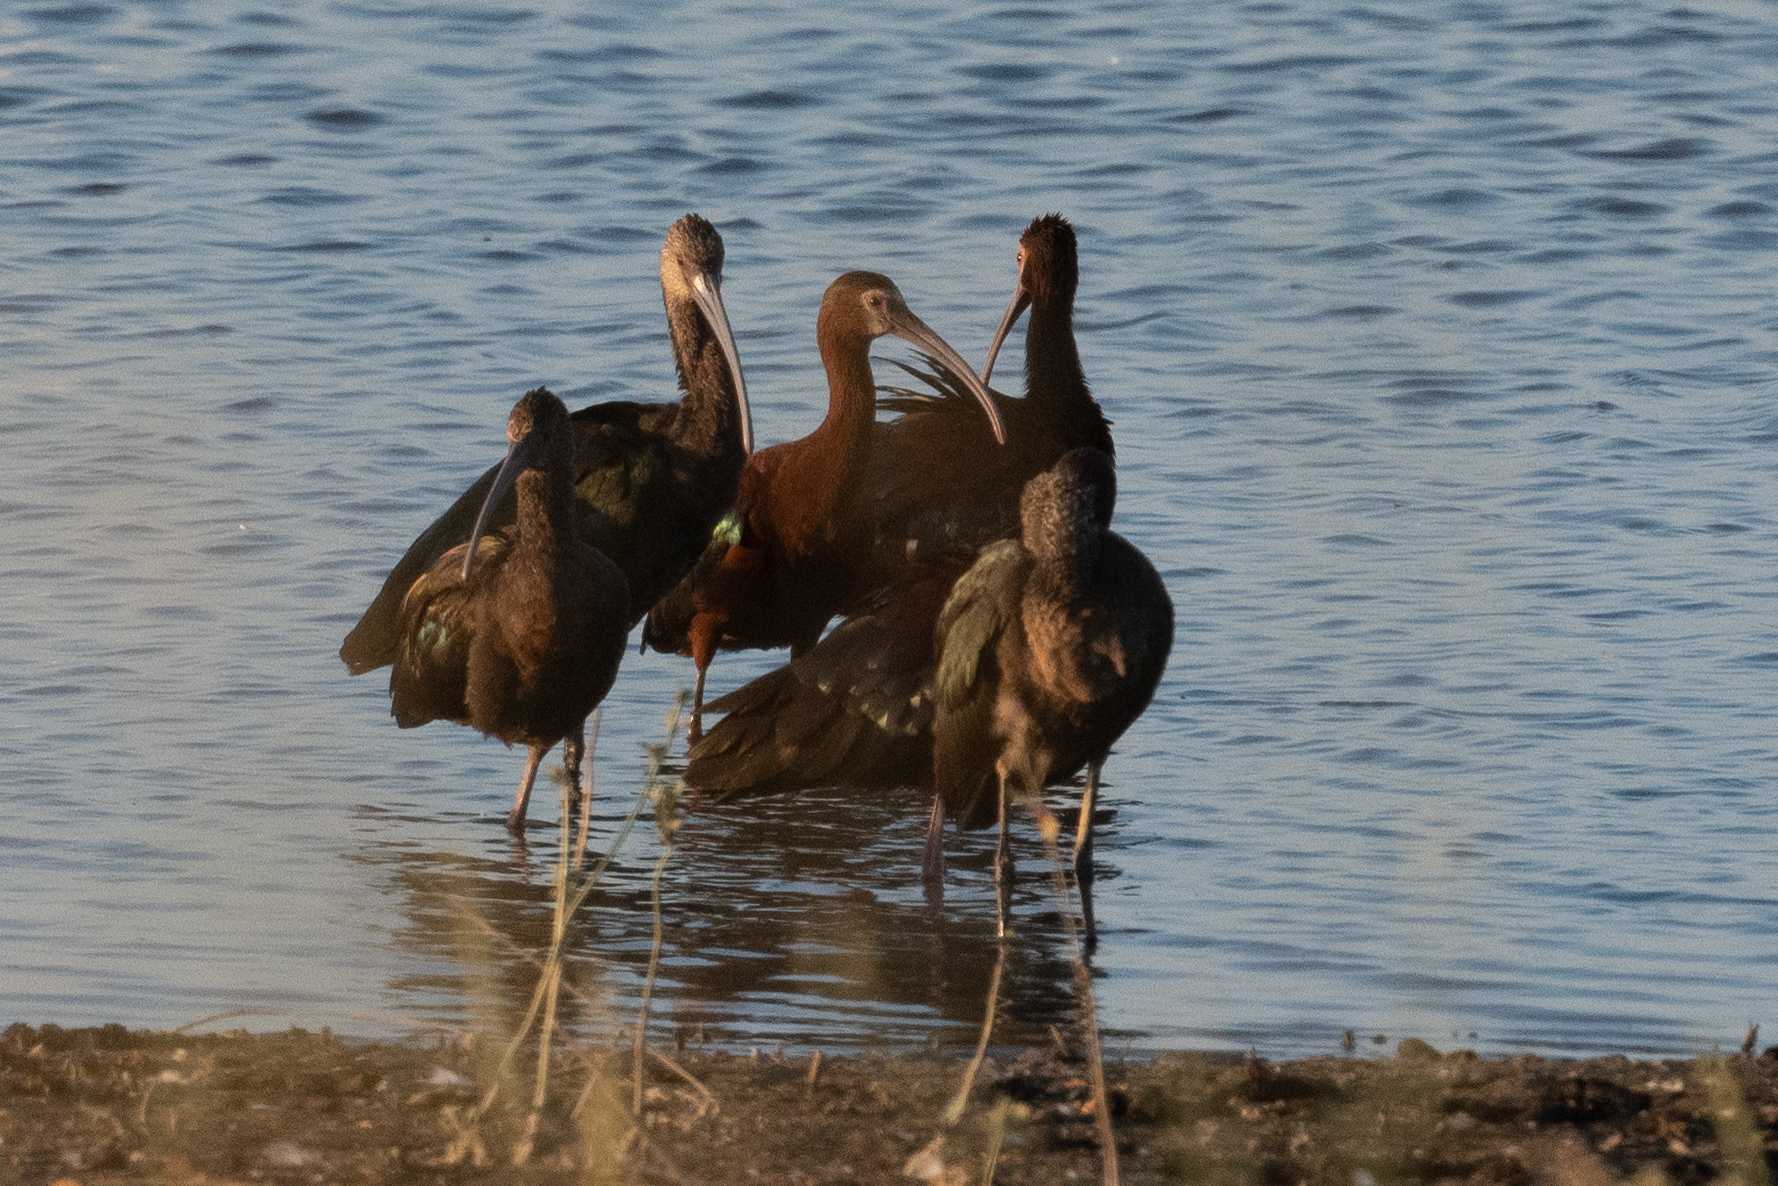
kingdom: Animalia
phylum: Chordata
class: Aves
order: Pelecaniformes
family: Threskiornithidae
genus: Plegadis
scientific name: Plegadis chihi
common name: White-faced ibis
